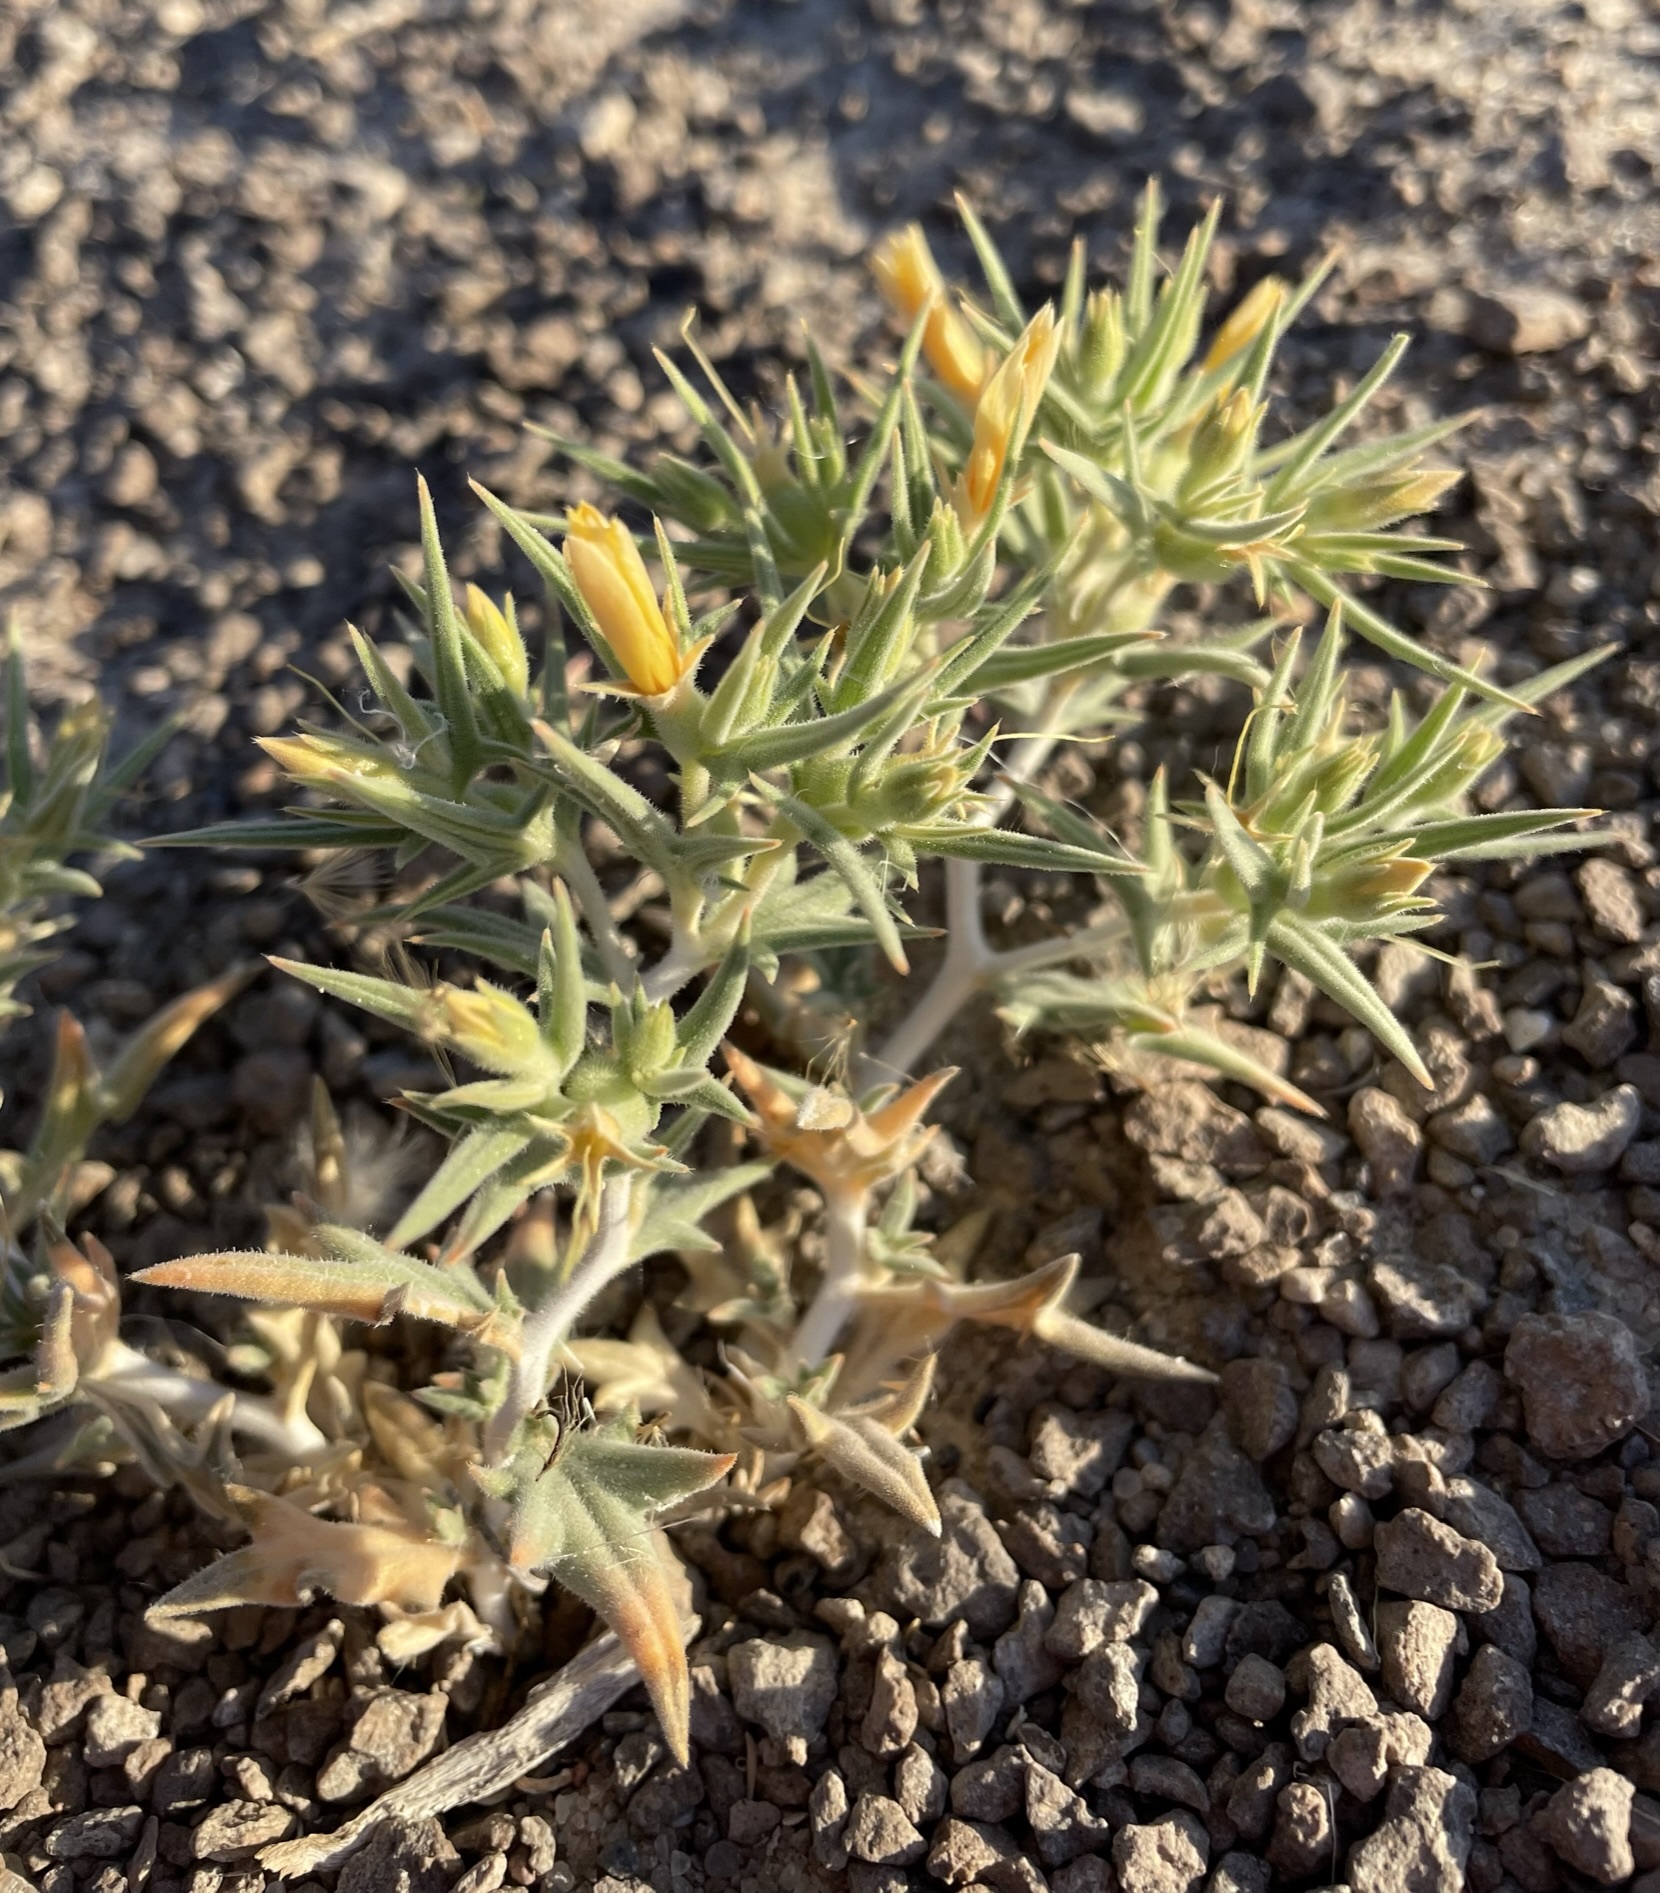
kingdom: Plantae
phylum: Tracheophyta
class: Magnoliopsida
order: Cornales
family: Loasaceae
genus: Mentzelia
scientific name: Mentzelia torreyi
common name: Torrey's blazingstar
